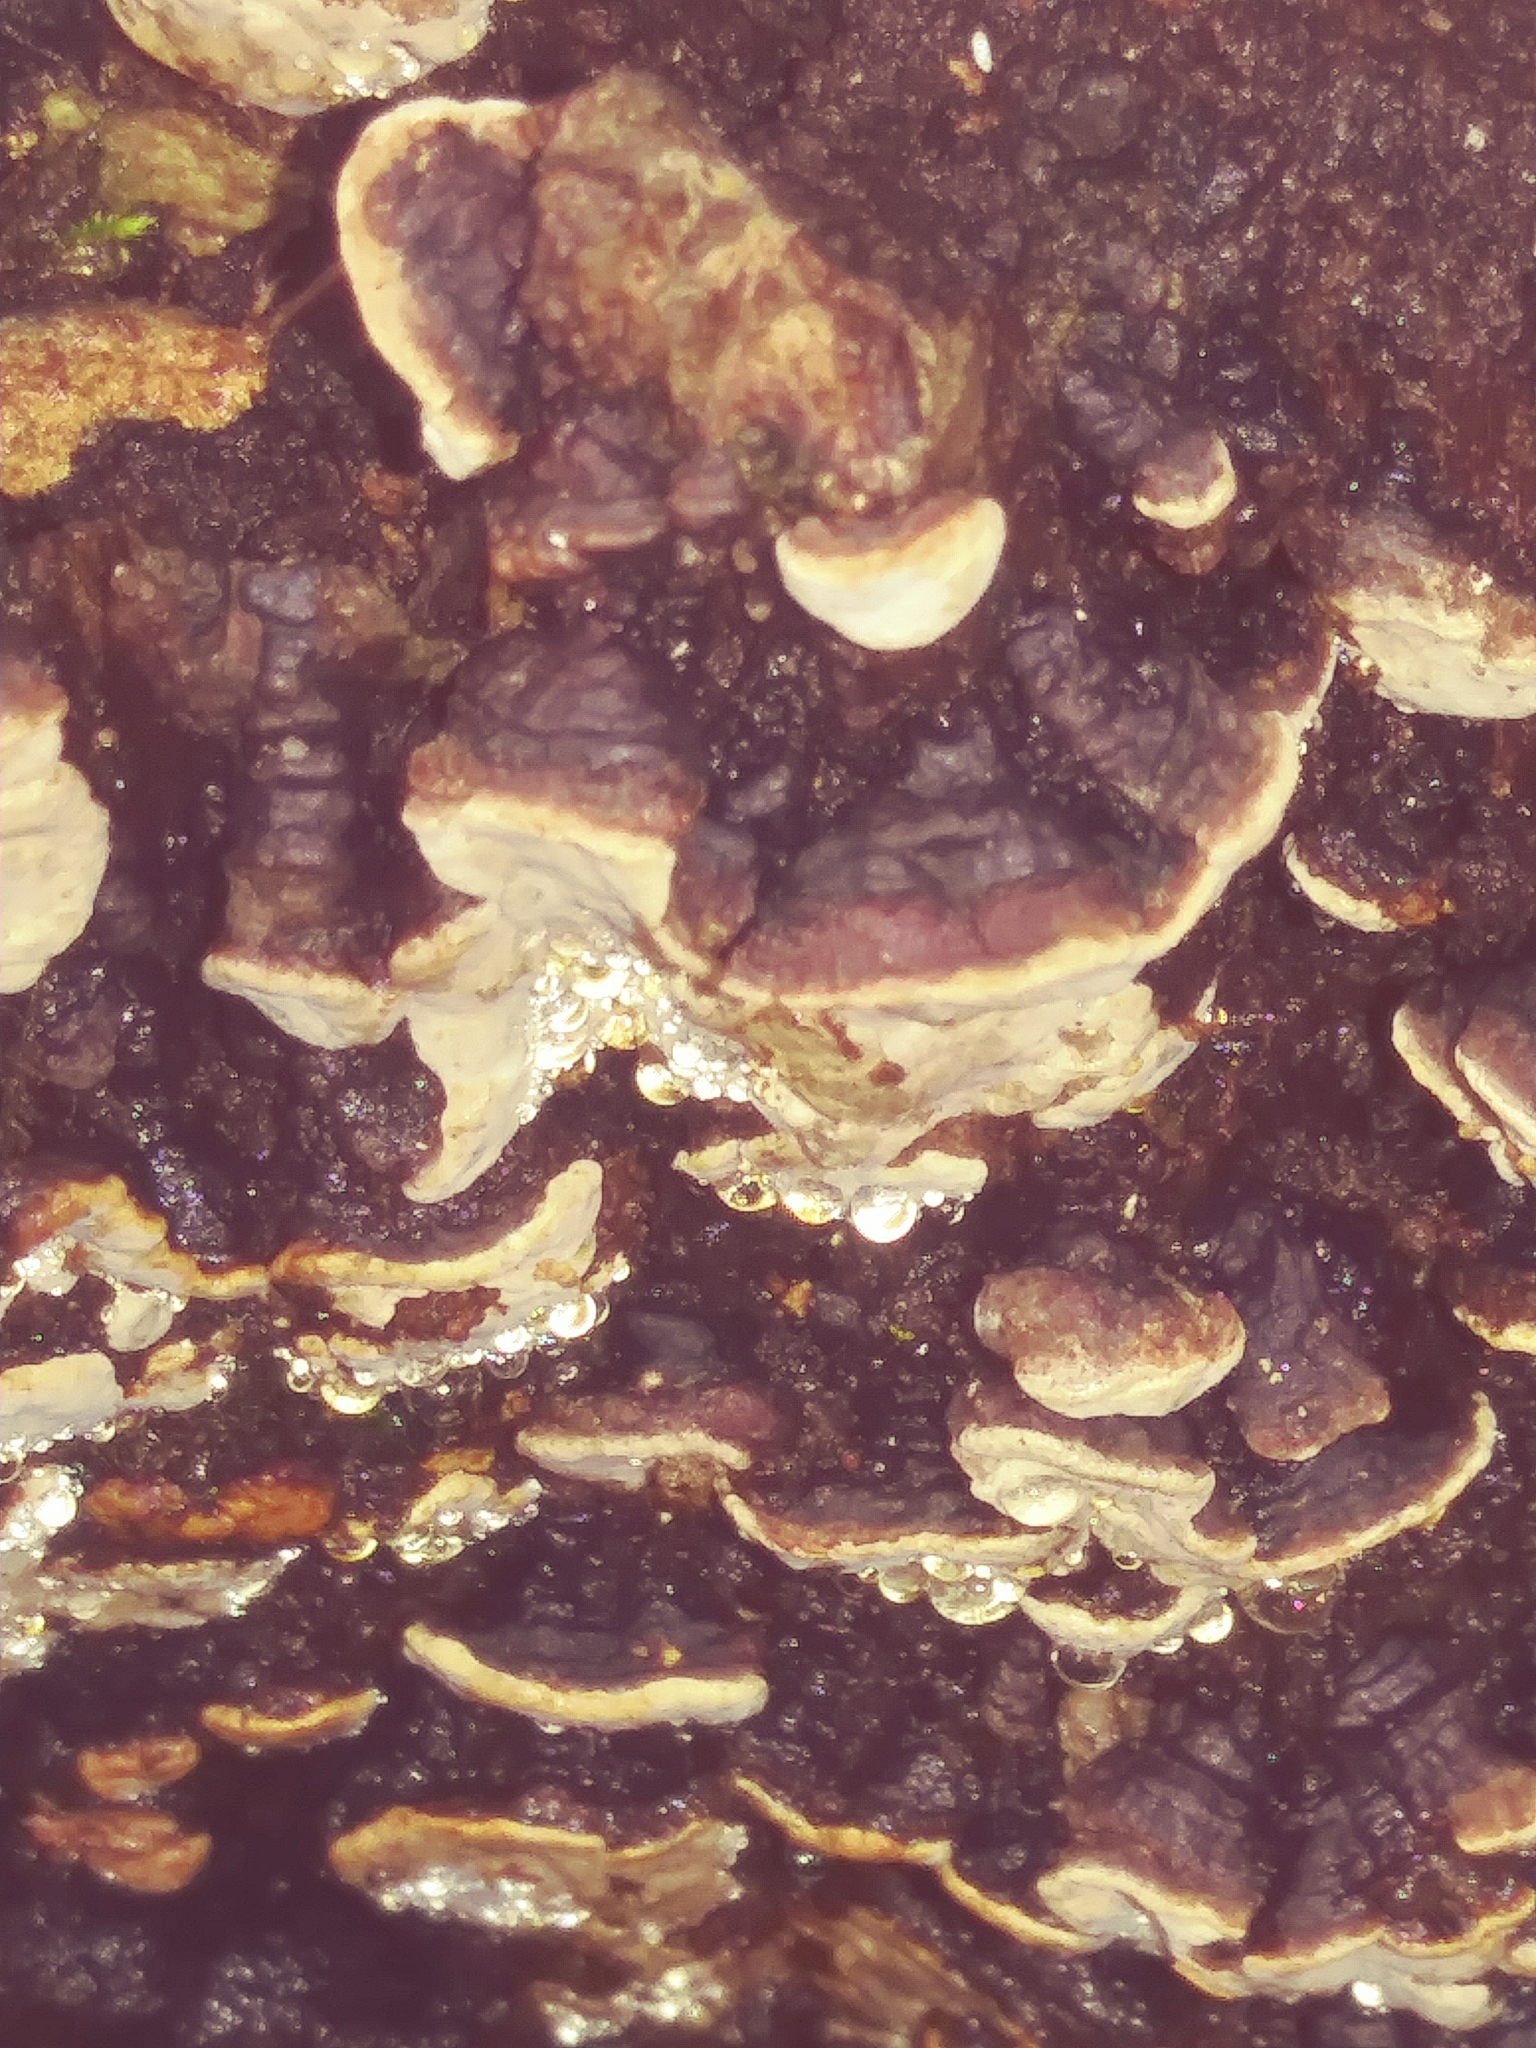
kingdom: Fungi
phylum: Basidiomycota
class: Agaricomycetes
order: Russulales
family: Stereaceae
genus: Xylobolus
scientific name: Xylobolus frustulatus
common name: Ceramic parchment
